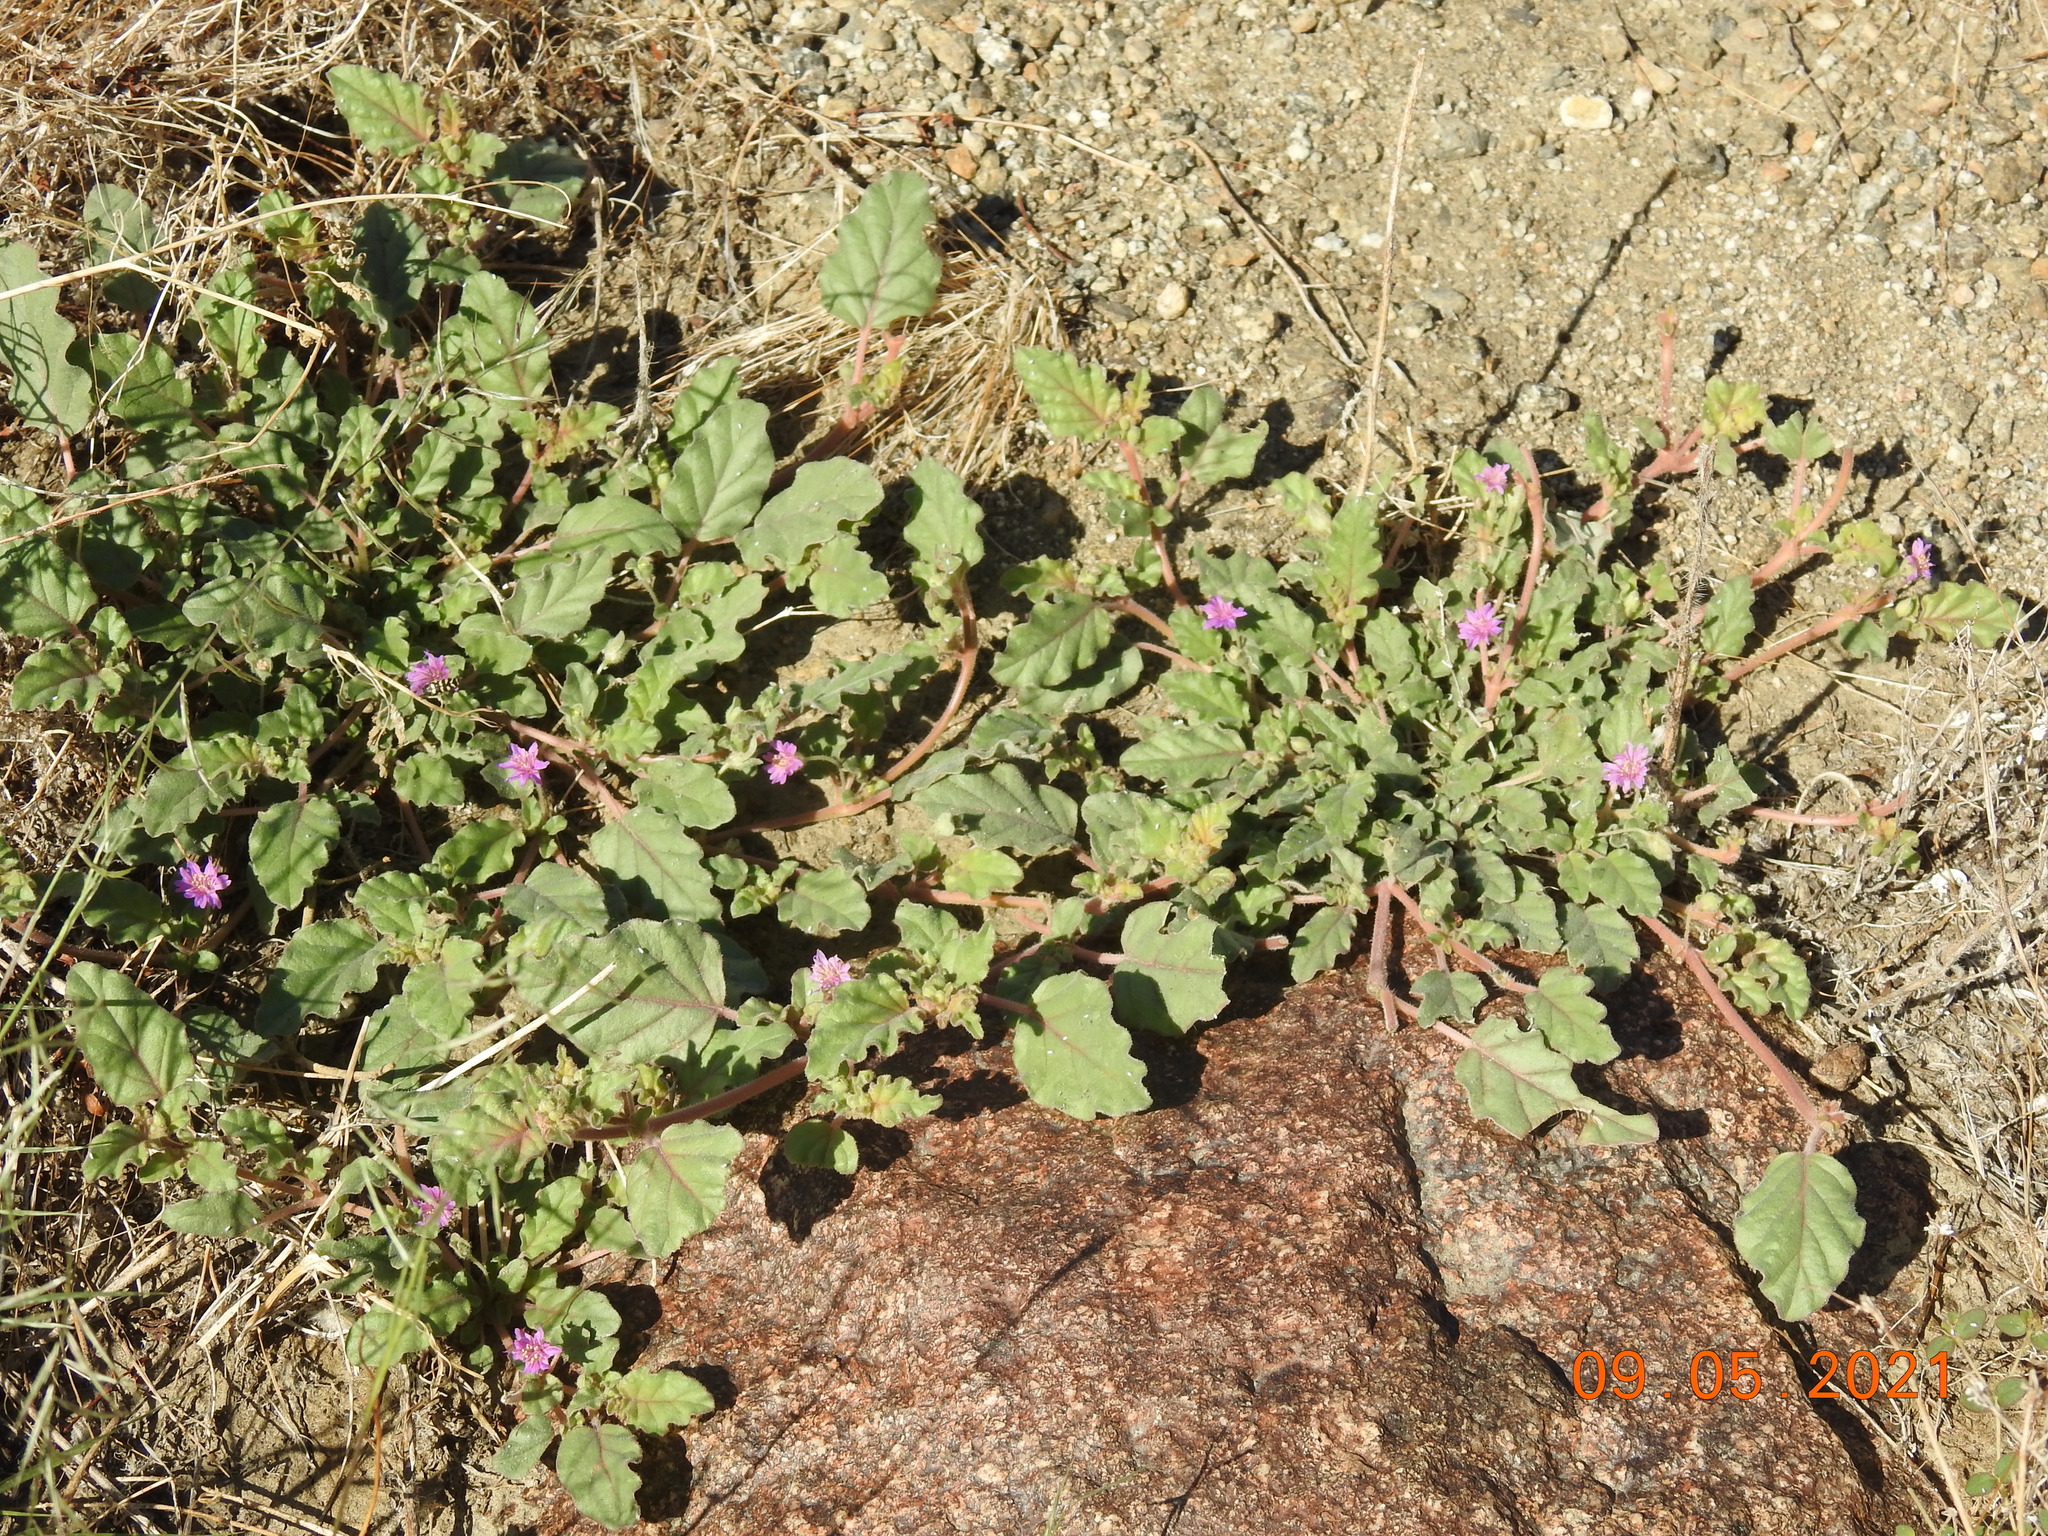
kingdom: Plantae
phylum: Tracheophyta
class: Magnoliopsida
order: Caryophyllales
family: Nyctaginaceae
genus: Allionia
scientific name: Allionia incarnata
